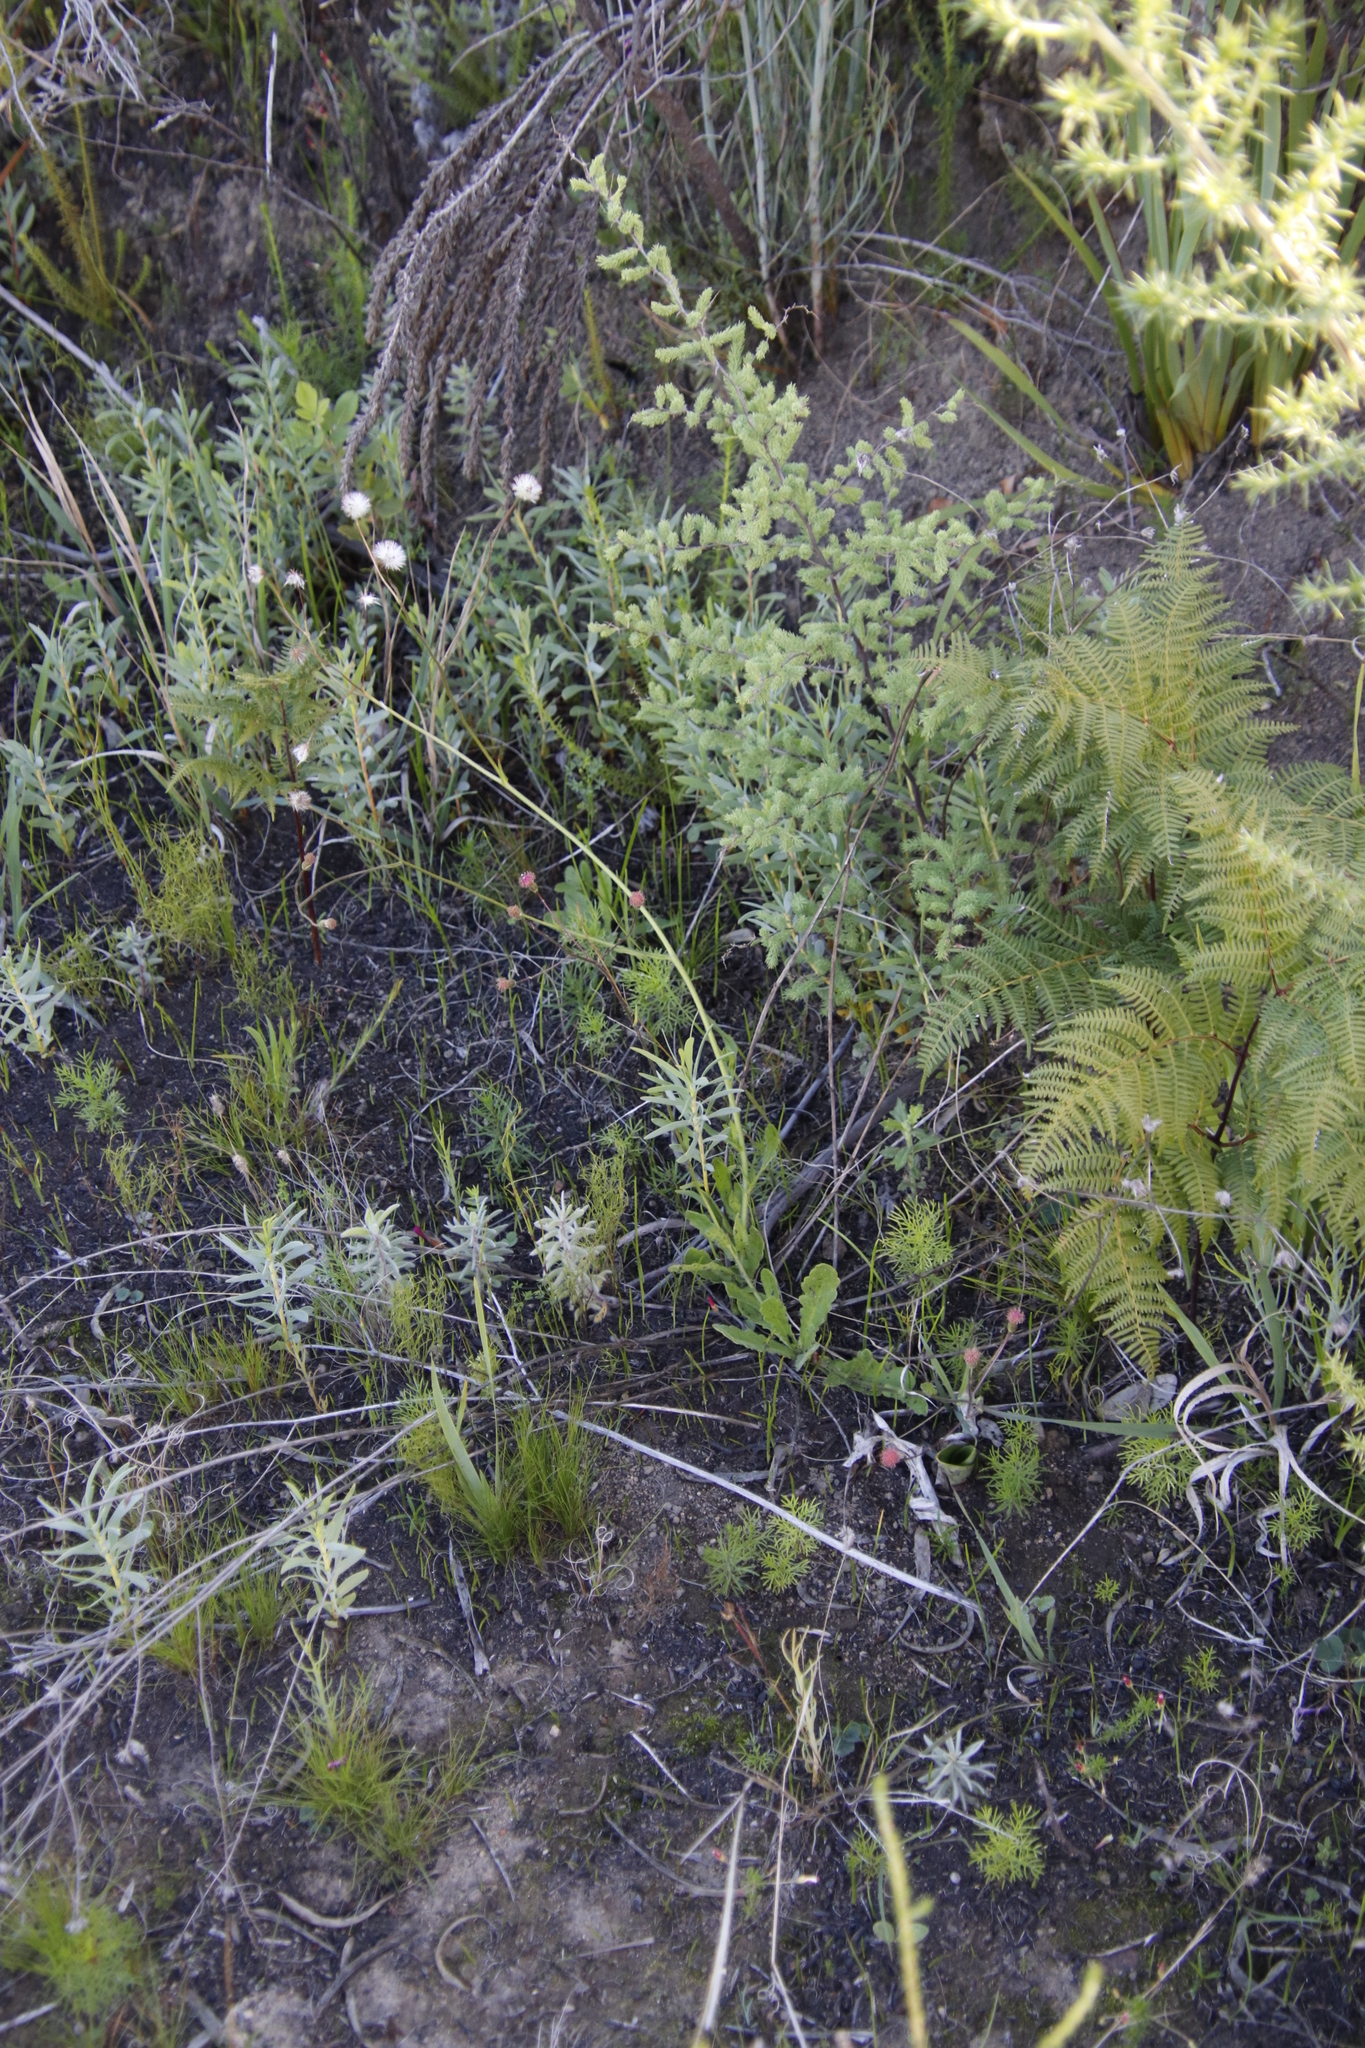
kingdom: Plantae
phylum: Tracheophyta
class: Liliopsida
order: Asparagales
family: Asparagaceae
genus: Asparagus
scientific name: Asparagus rubicundus
